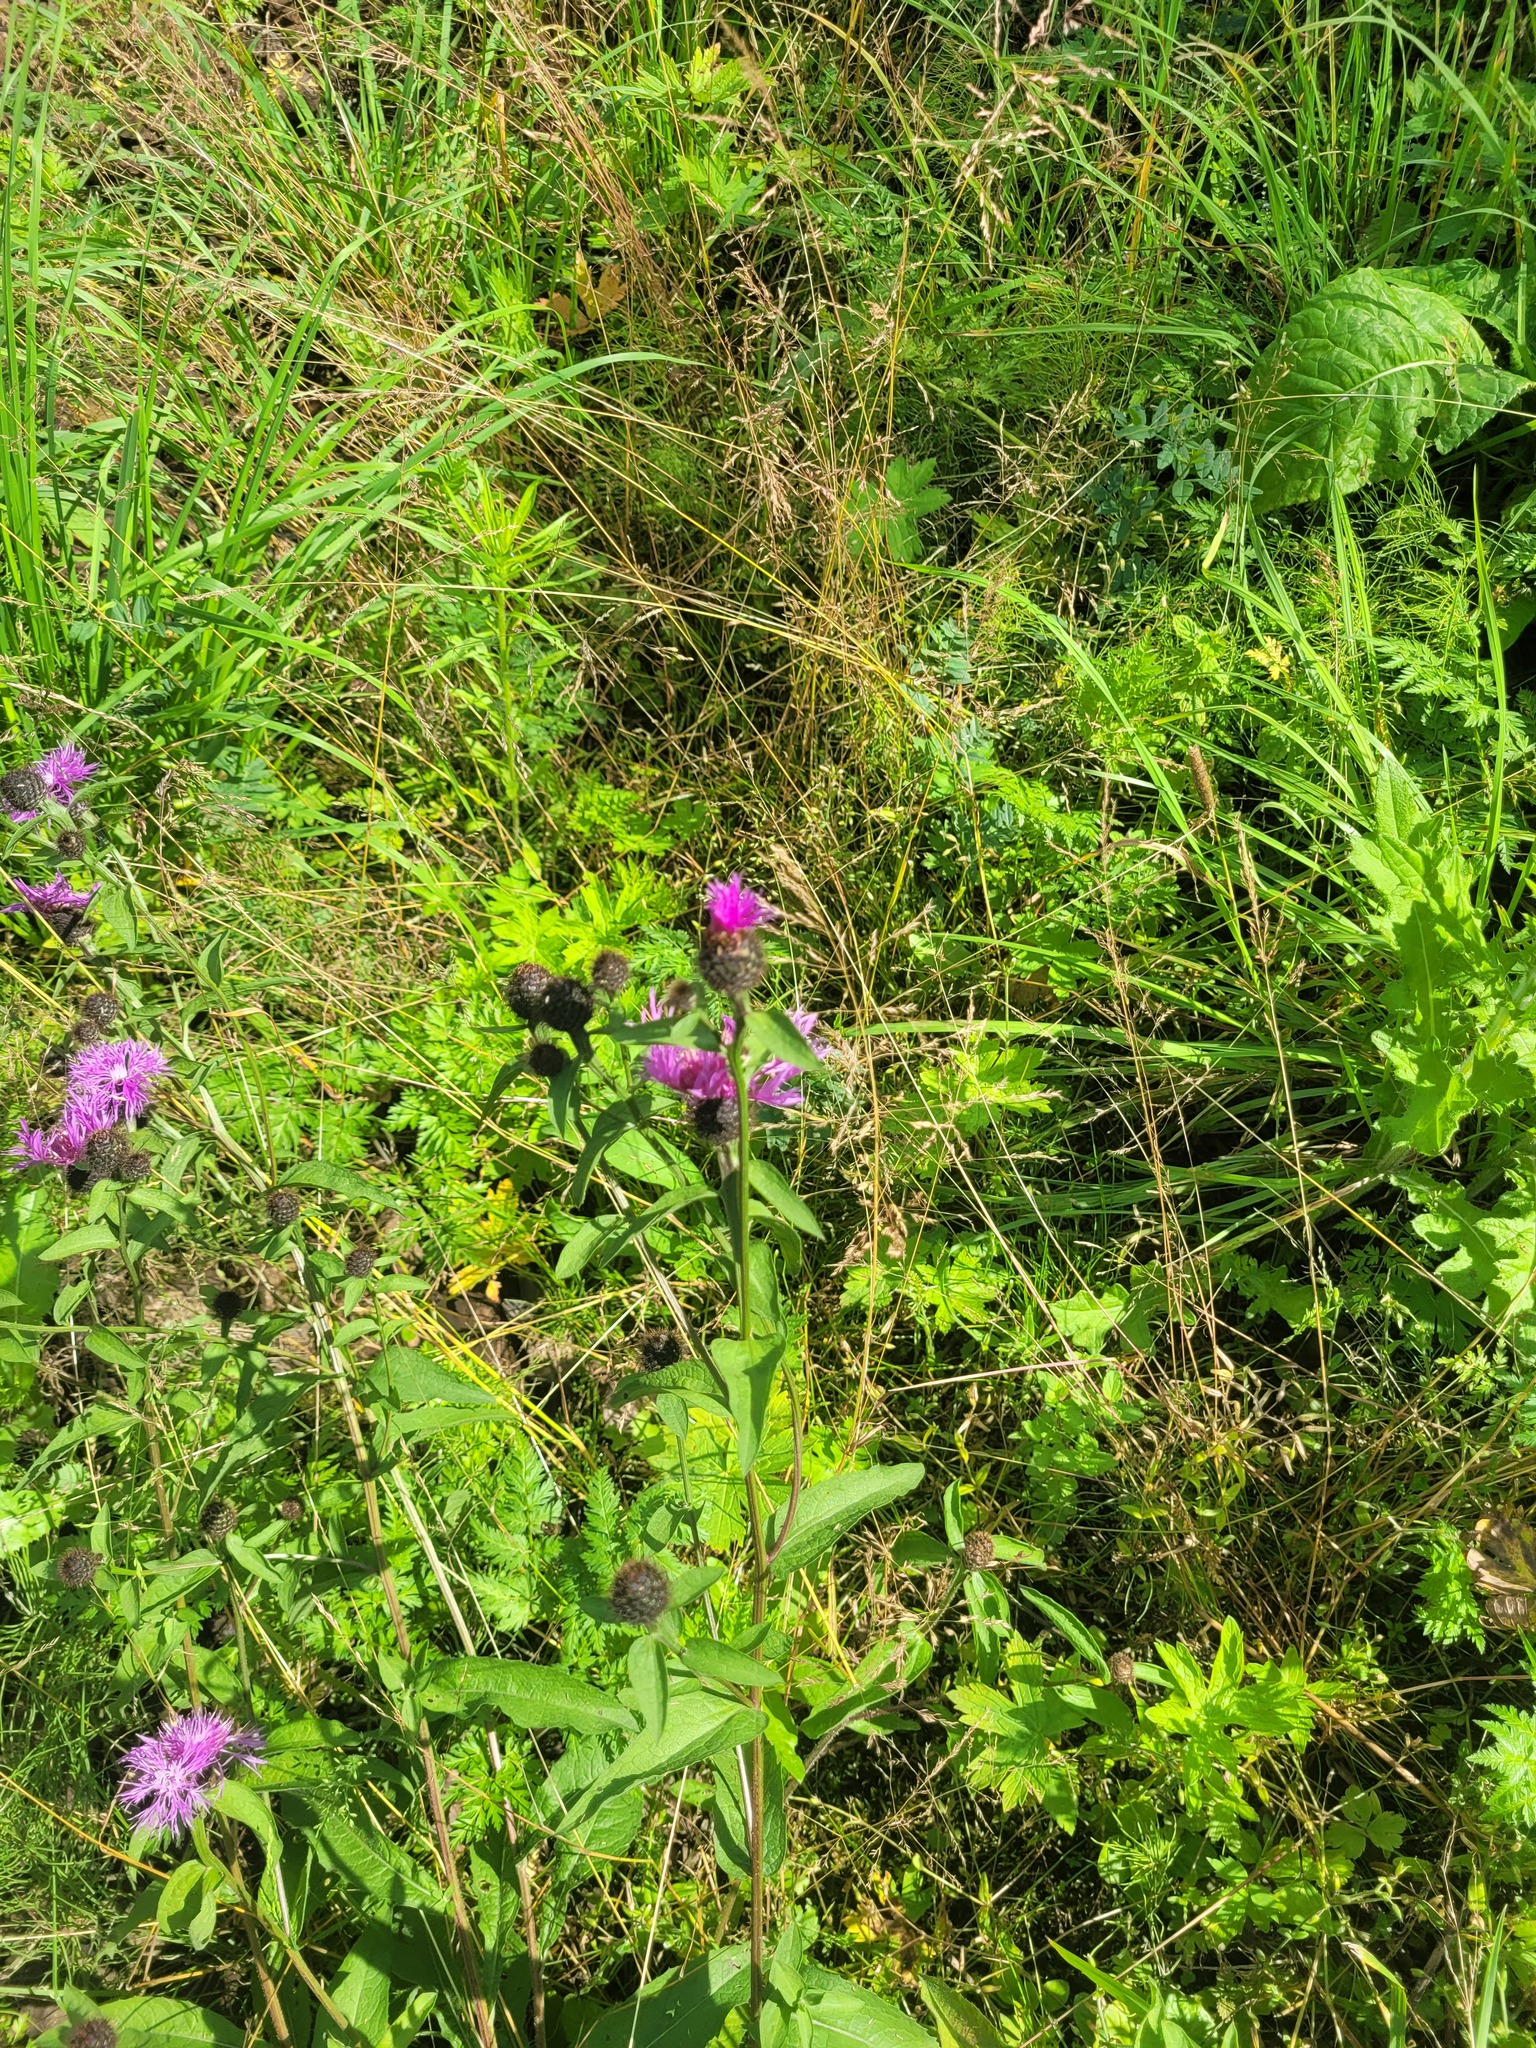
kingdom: Plantae
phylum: Tracheophyta
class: Magnoliopsida
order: Asterales
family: Asteraceae
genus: Centaurea
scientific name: Centaurea phrygia
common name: Wig knapweed
